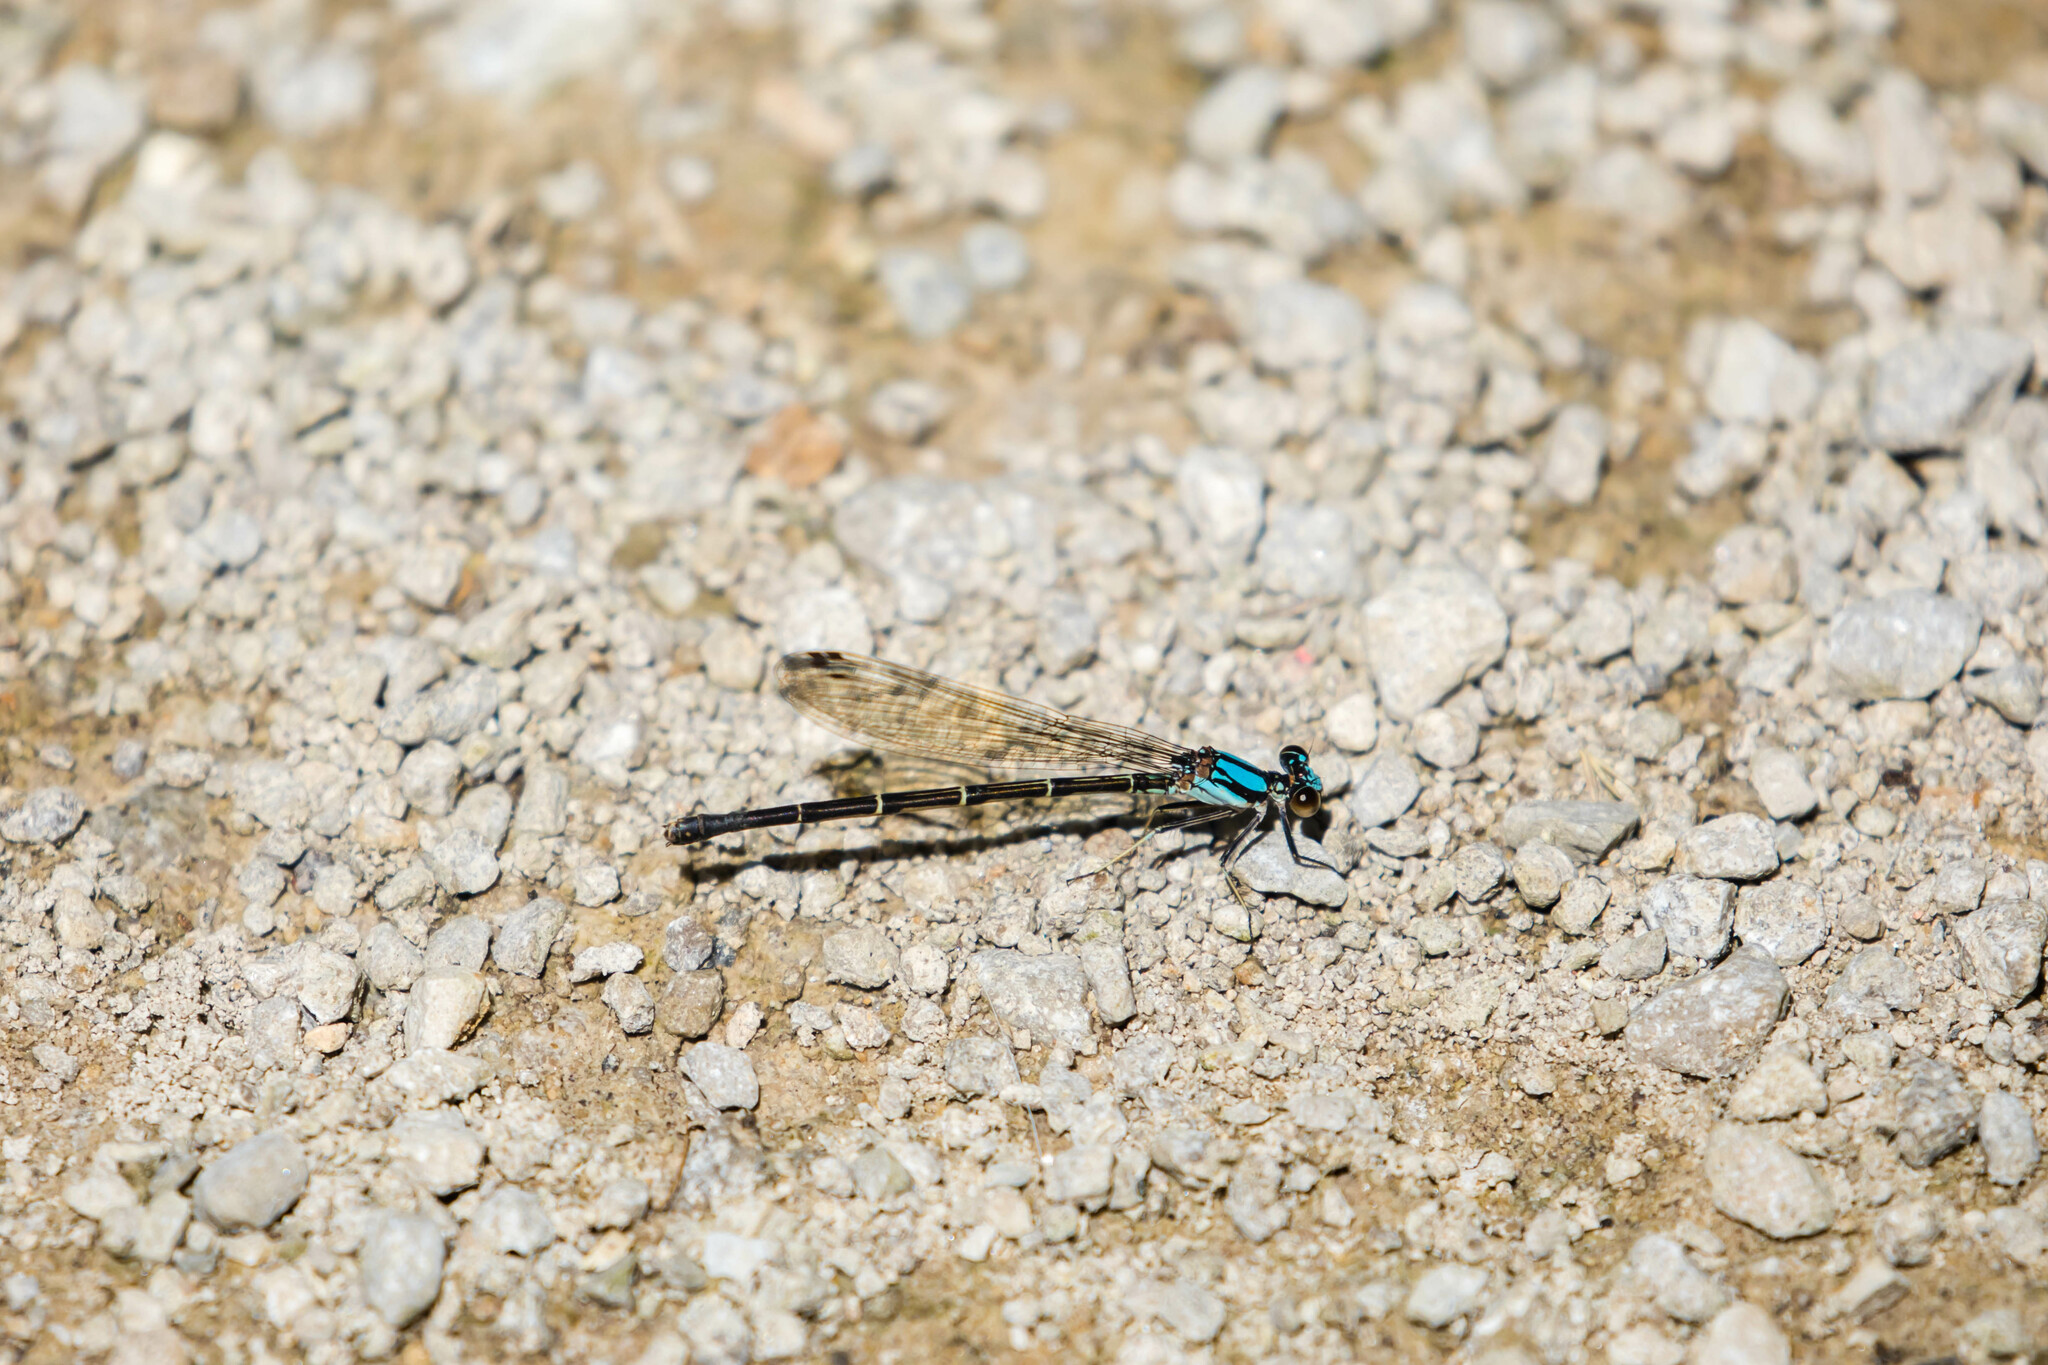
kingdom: Animalia
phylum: Arthropoda
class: Insecta
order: Odonata
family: Coenagrionidae
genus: Argia
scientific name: Argia tibialis
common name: Blue-tipped dancer
